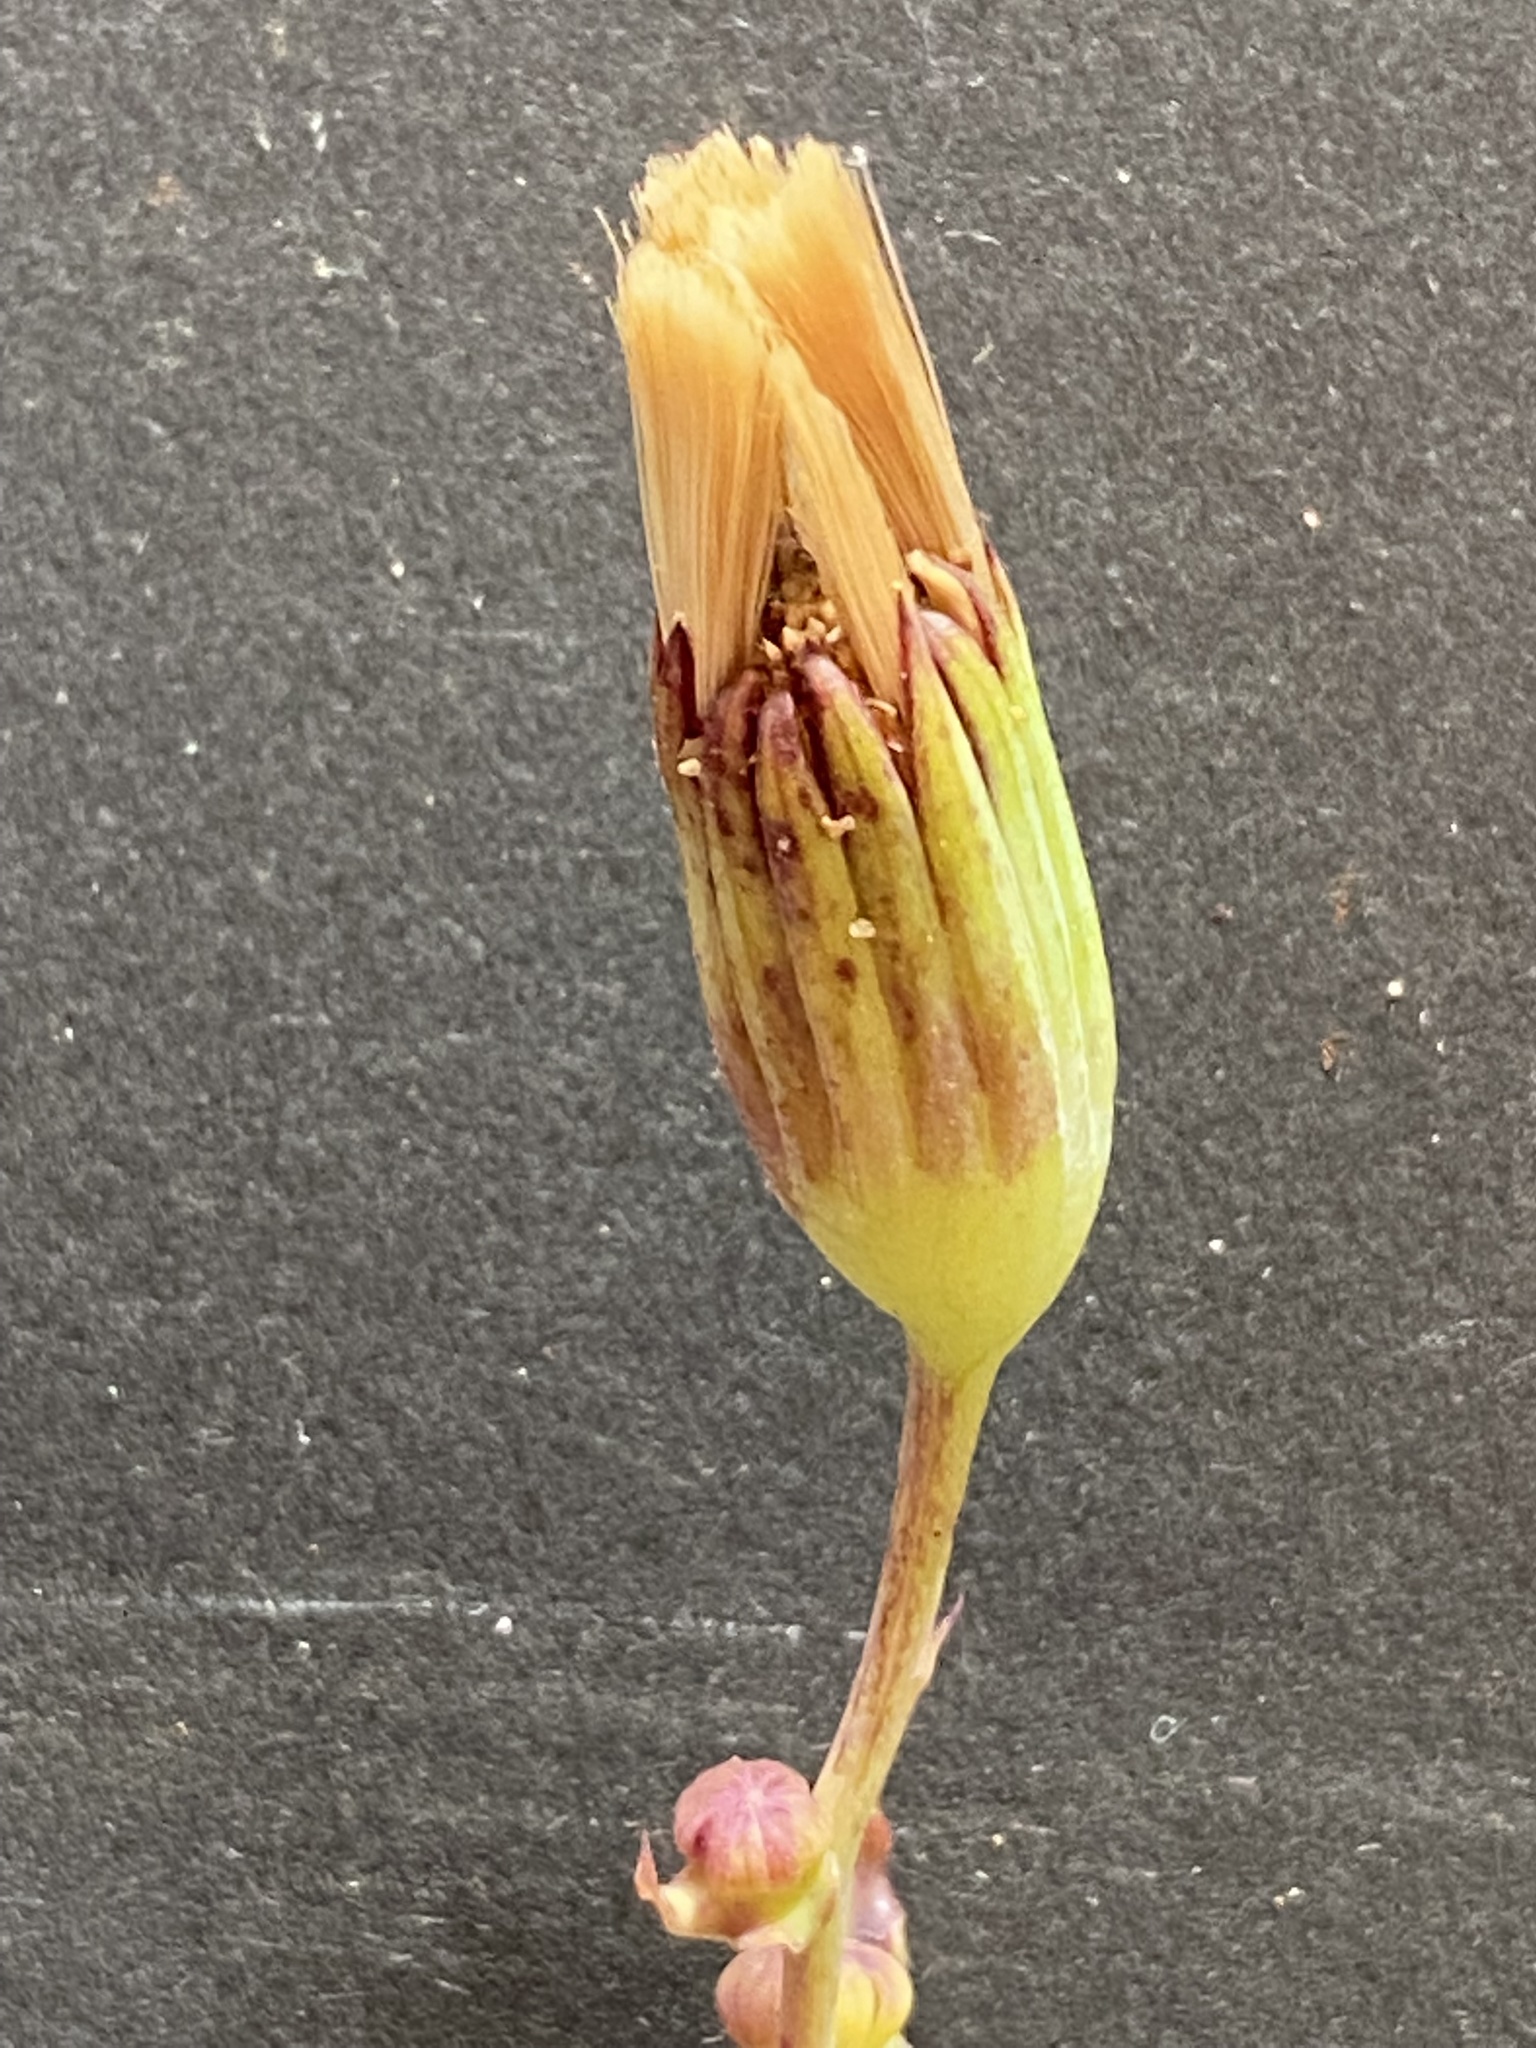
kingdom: Plantae
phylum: Tracheophyta
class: Magnoliopsida
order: Asterales
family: Asteraceae
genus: Othonna
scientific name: Othonna undulosa
